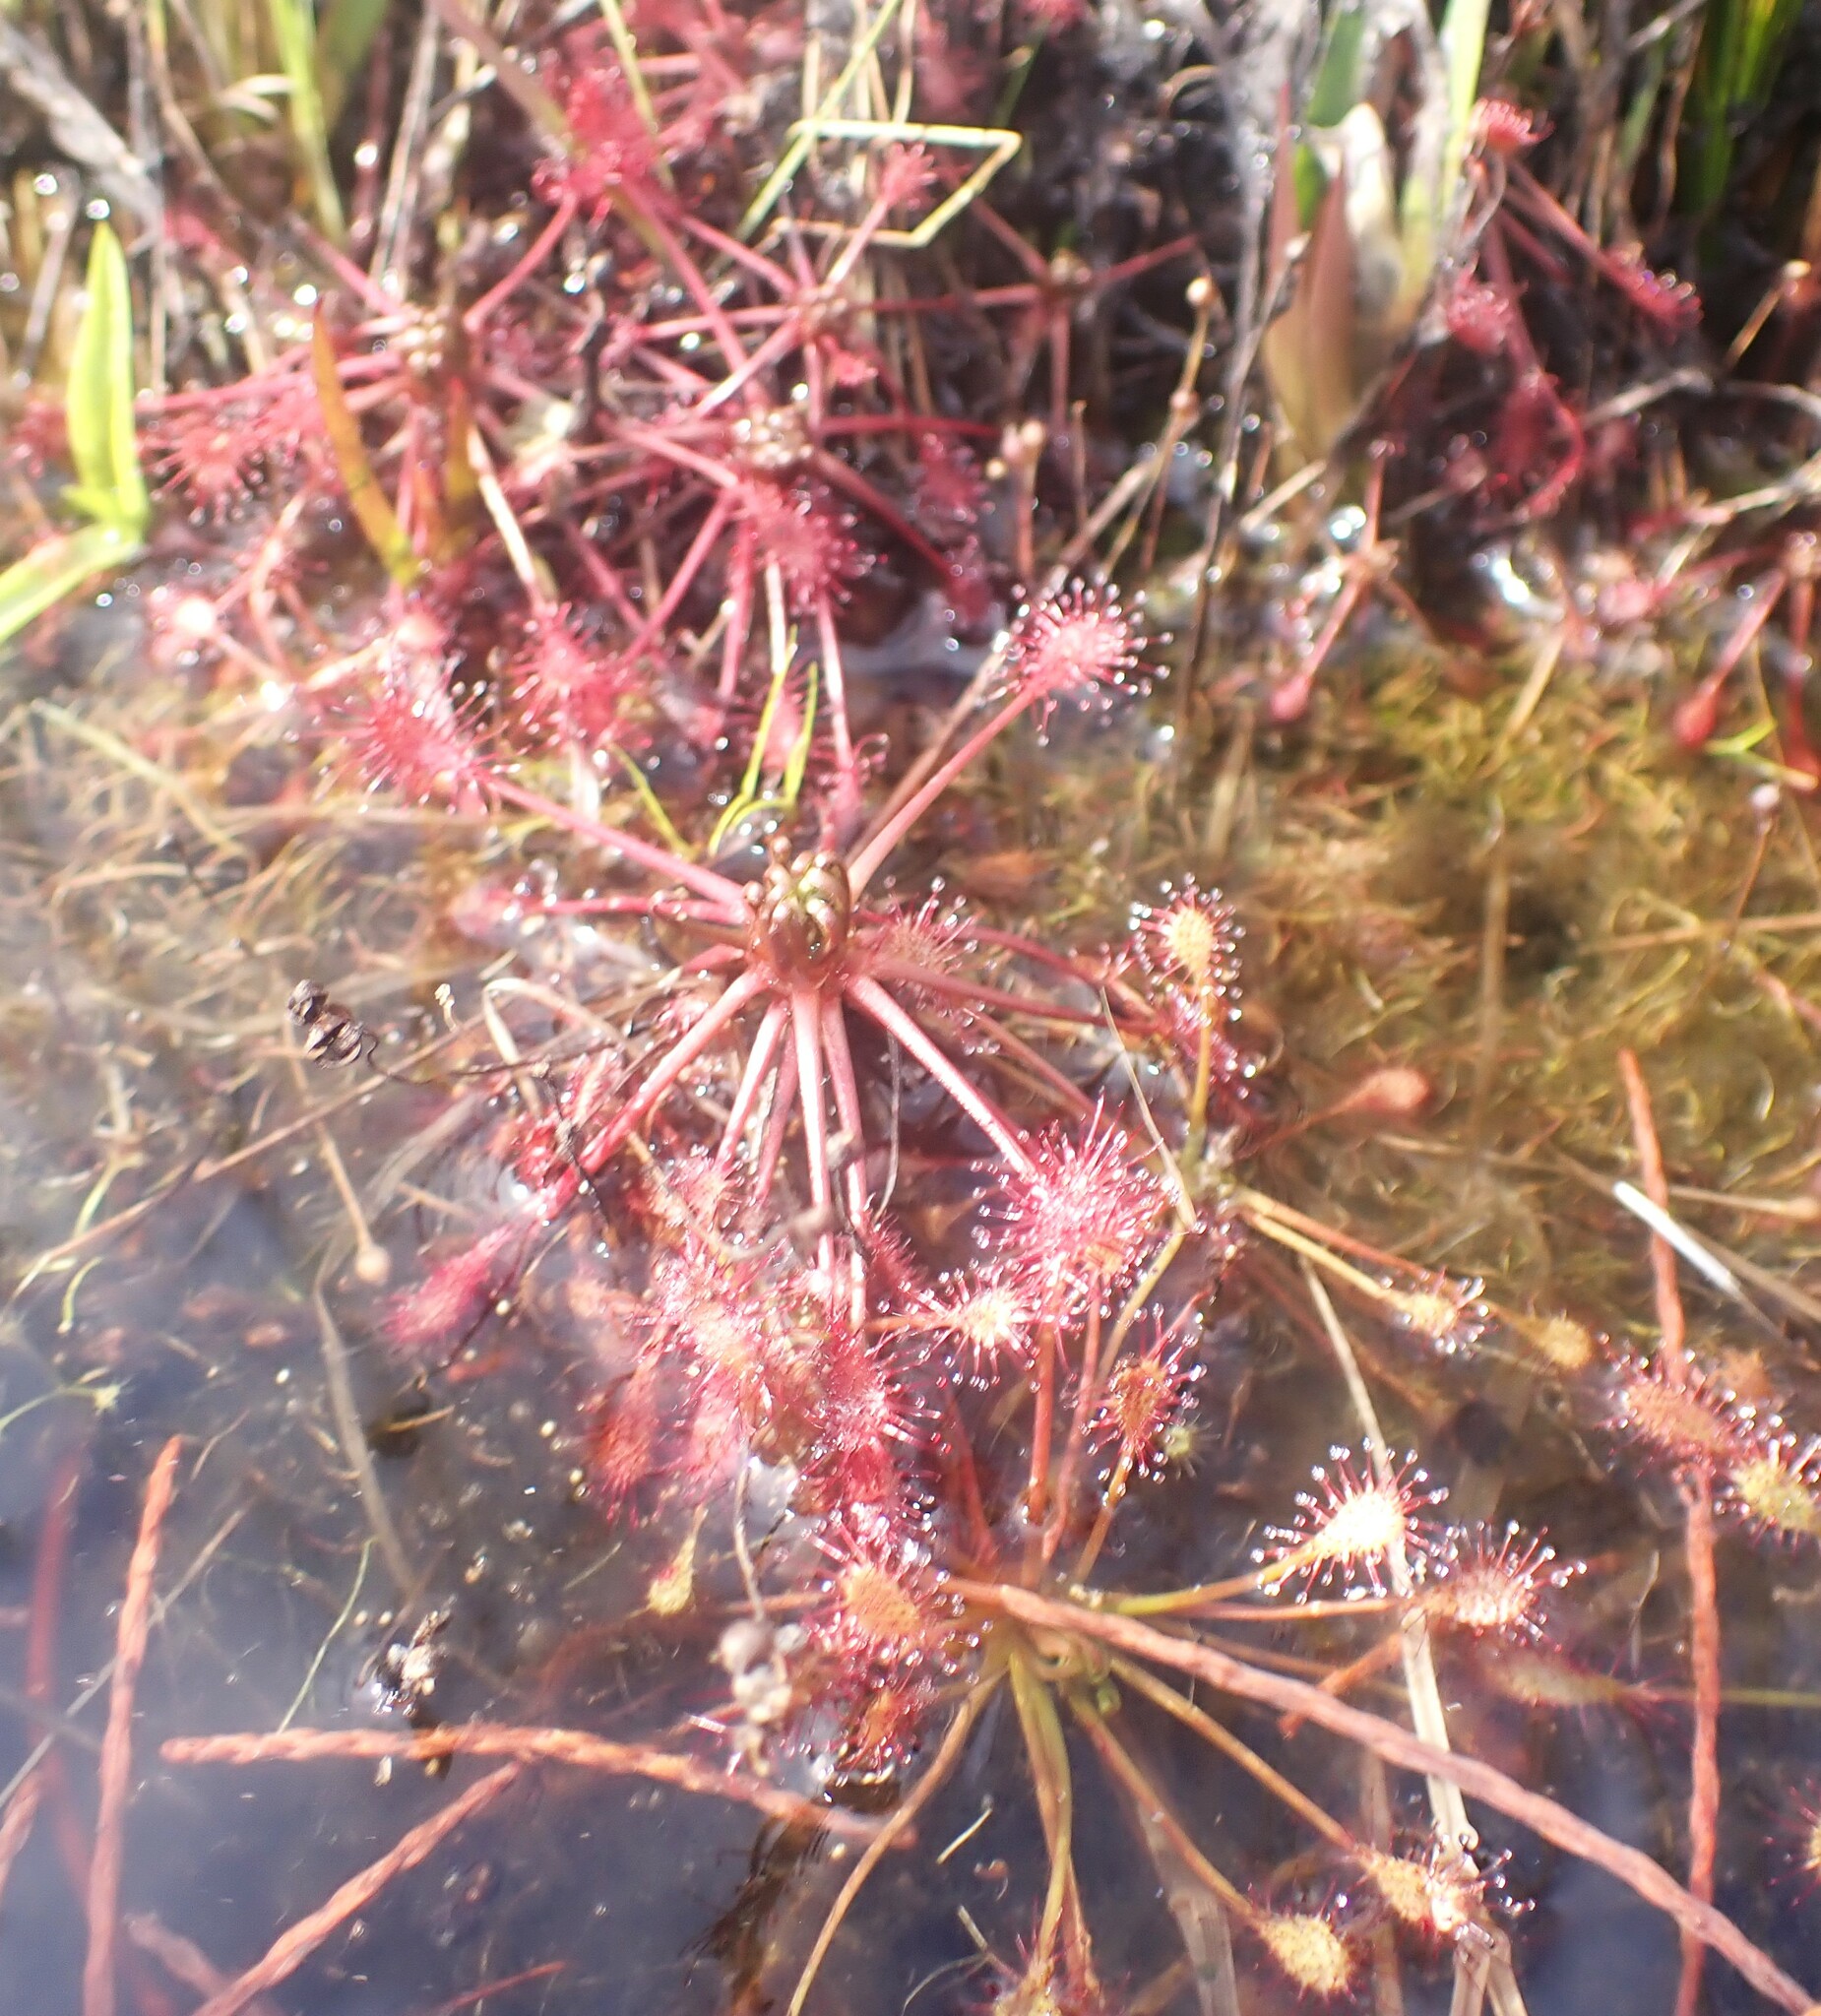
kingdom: Plantae
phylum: Tracheophyta
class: Magnoliopsida
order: Caryophyllales
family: Droseraceae
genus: Drosera
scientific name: Drosera intermedia
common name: Oblong-leaved sundew
